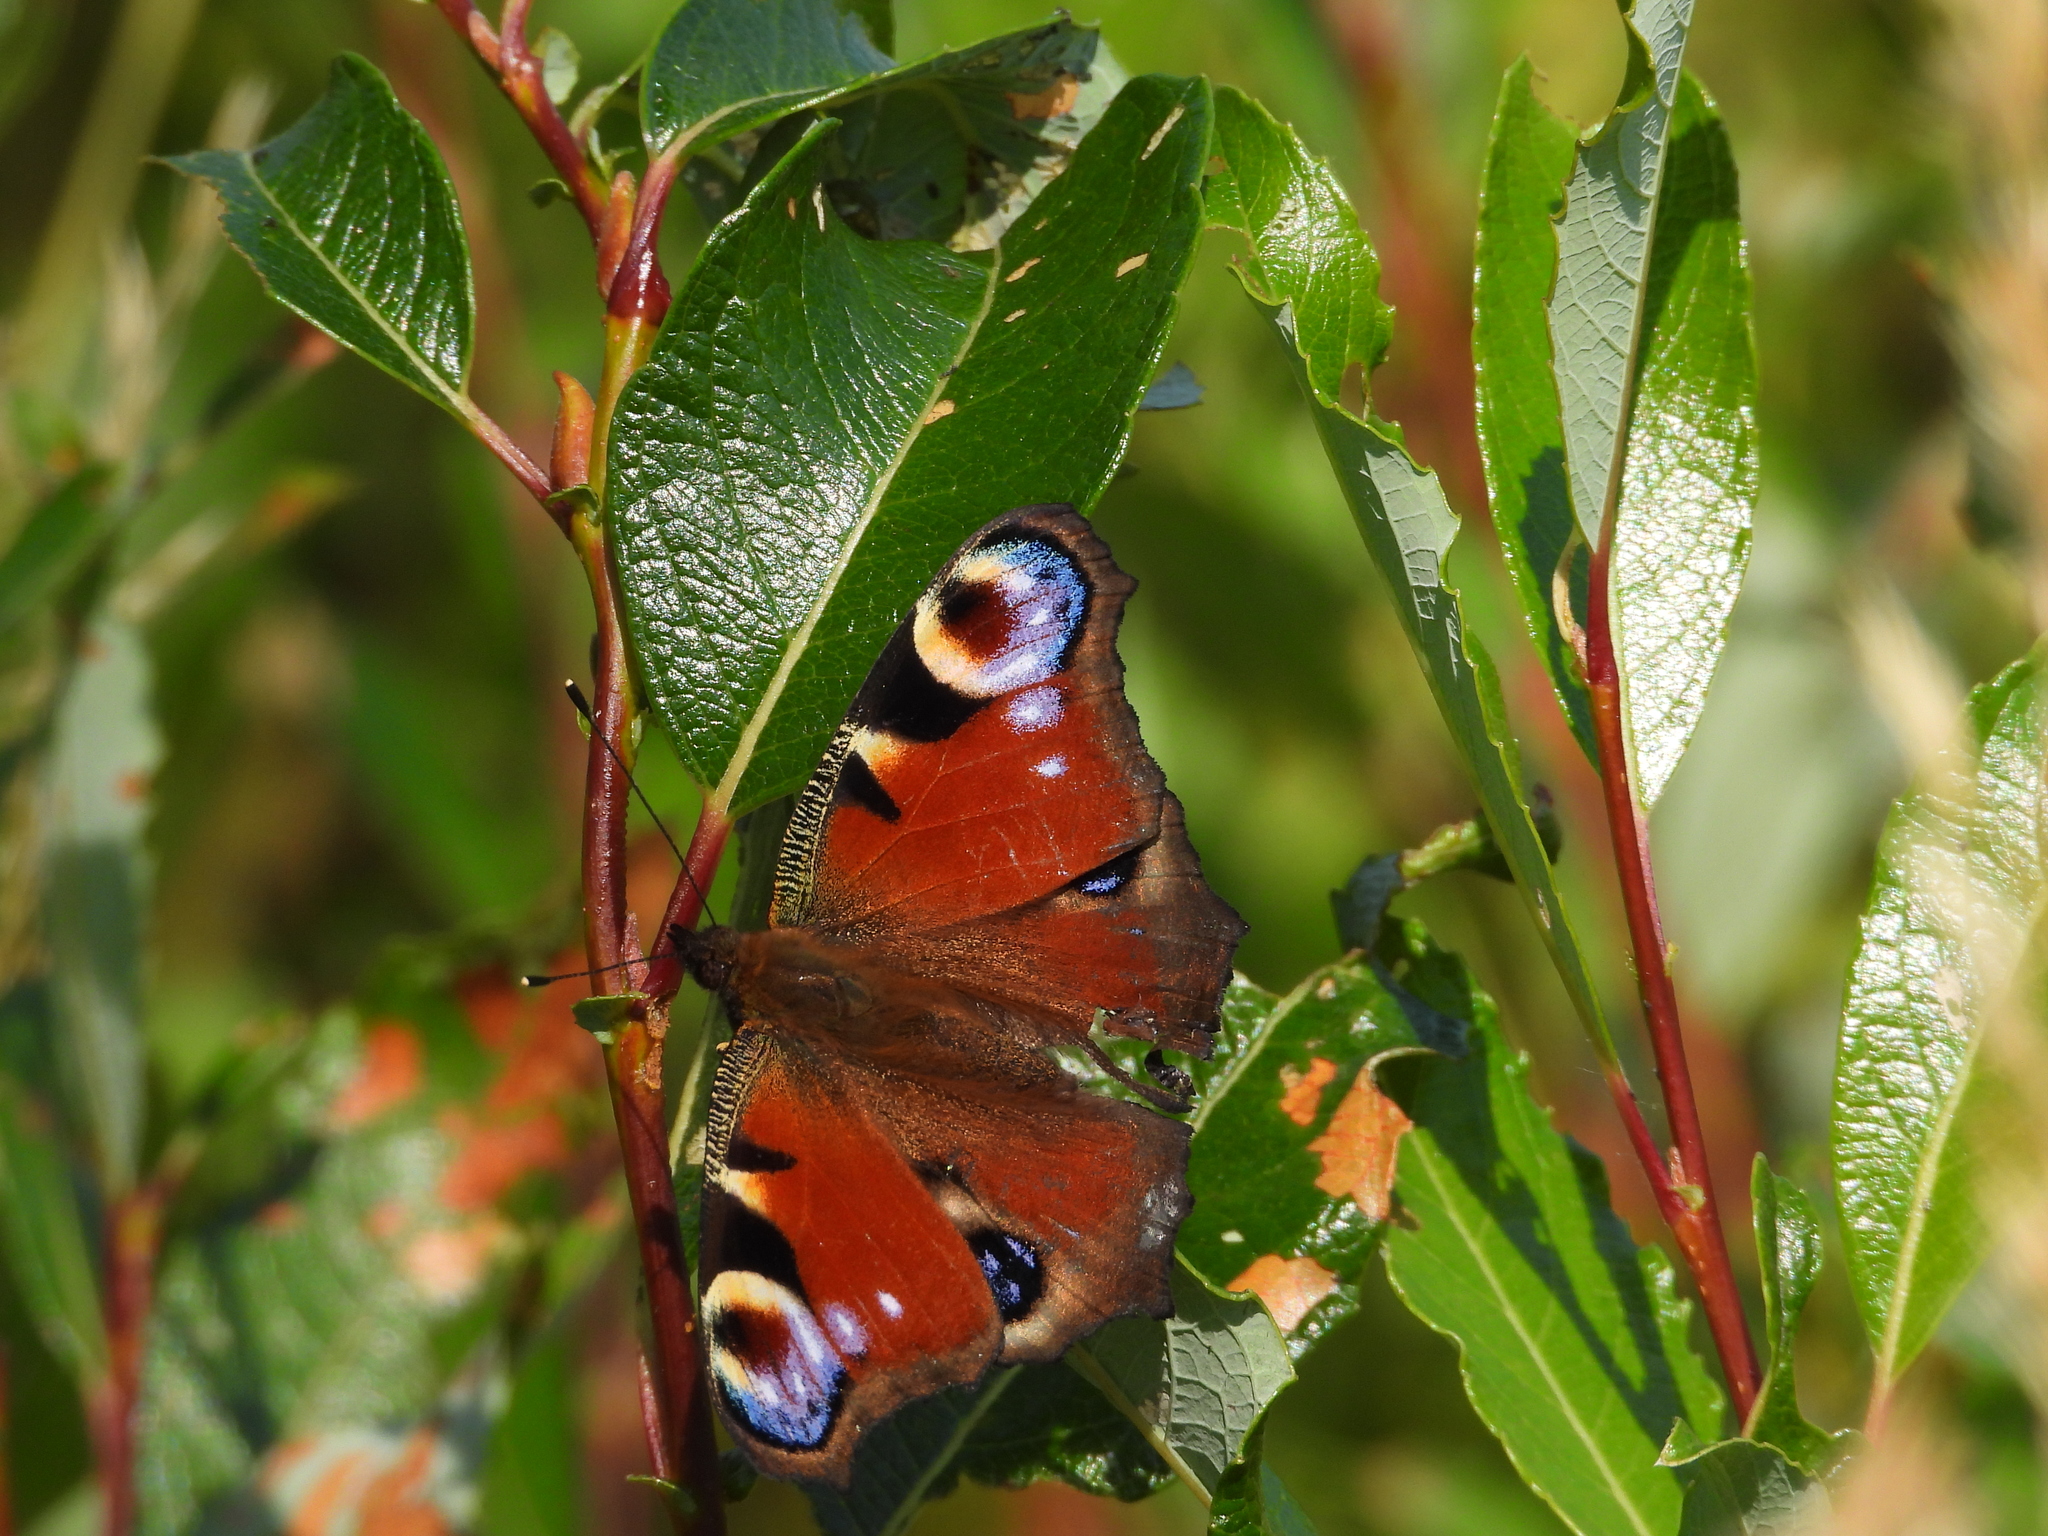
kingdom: Animalia
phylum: Arthropoda
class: Insecta
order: Lepidoptera
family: Nymphalidae
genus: Aglais
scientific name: Aglais io
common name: Peacock
